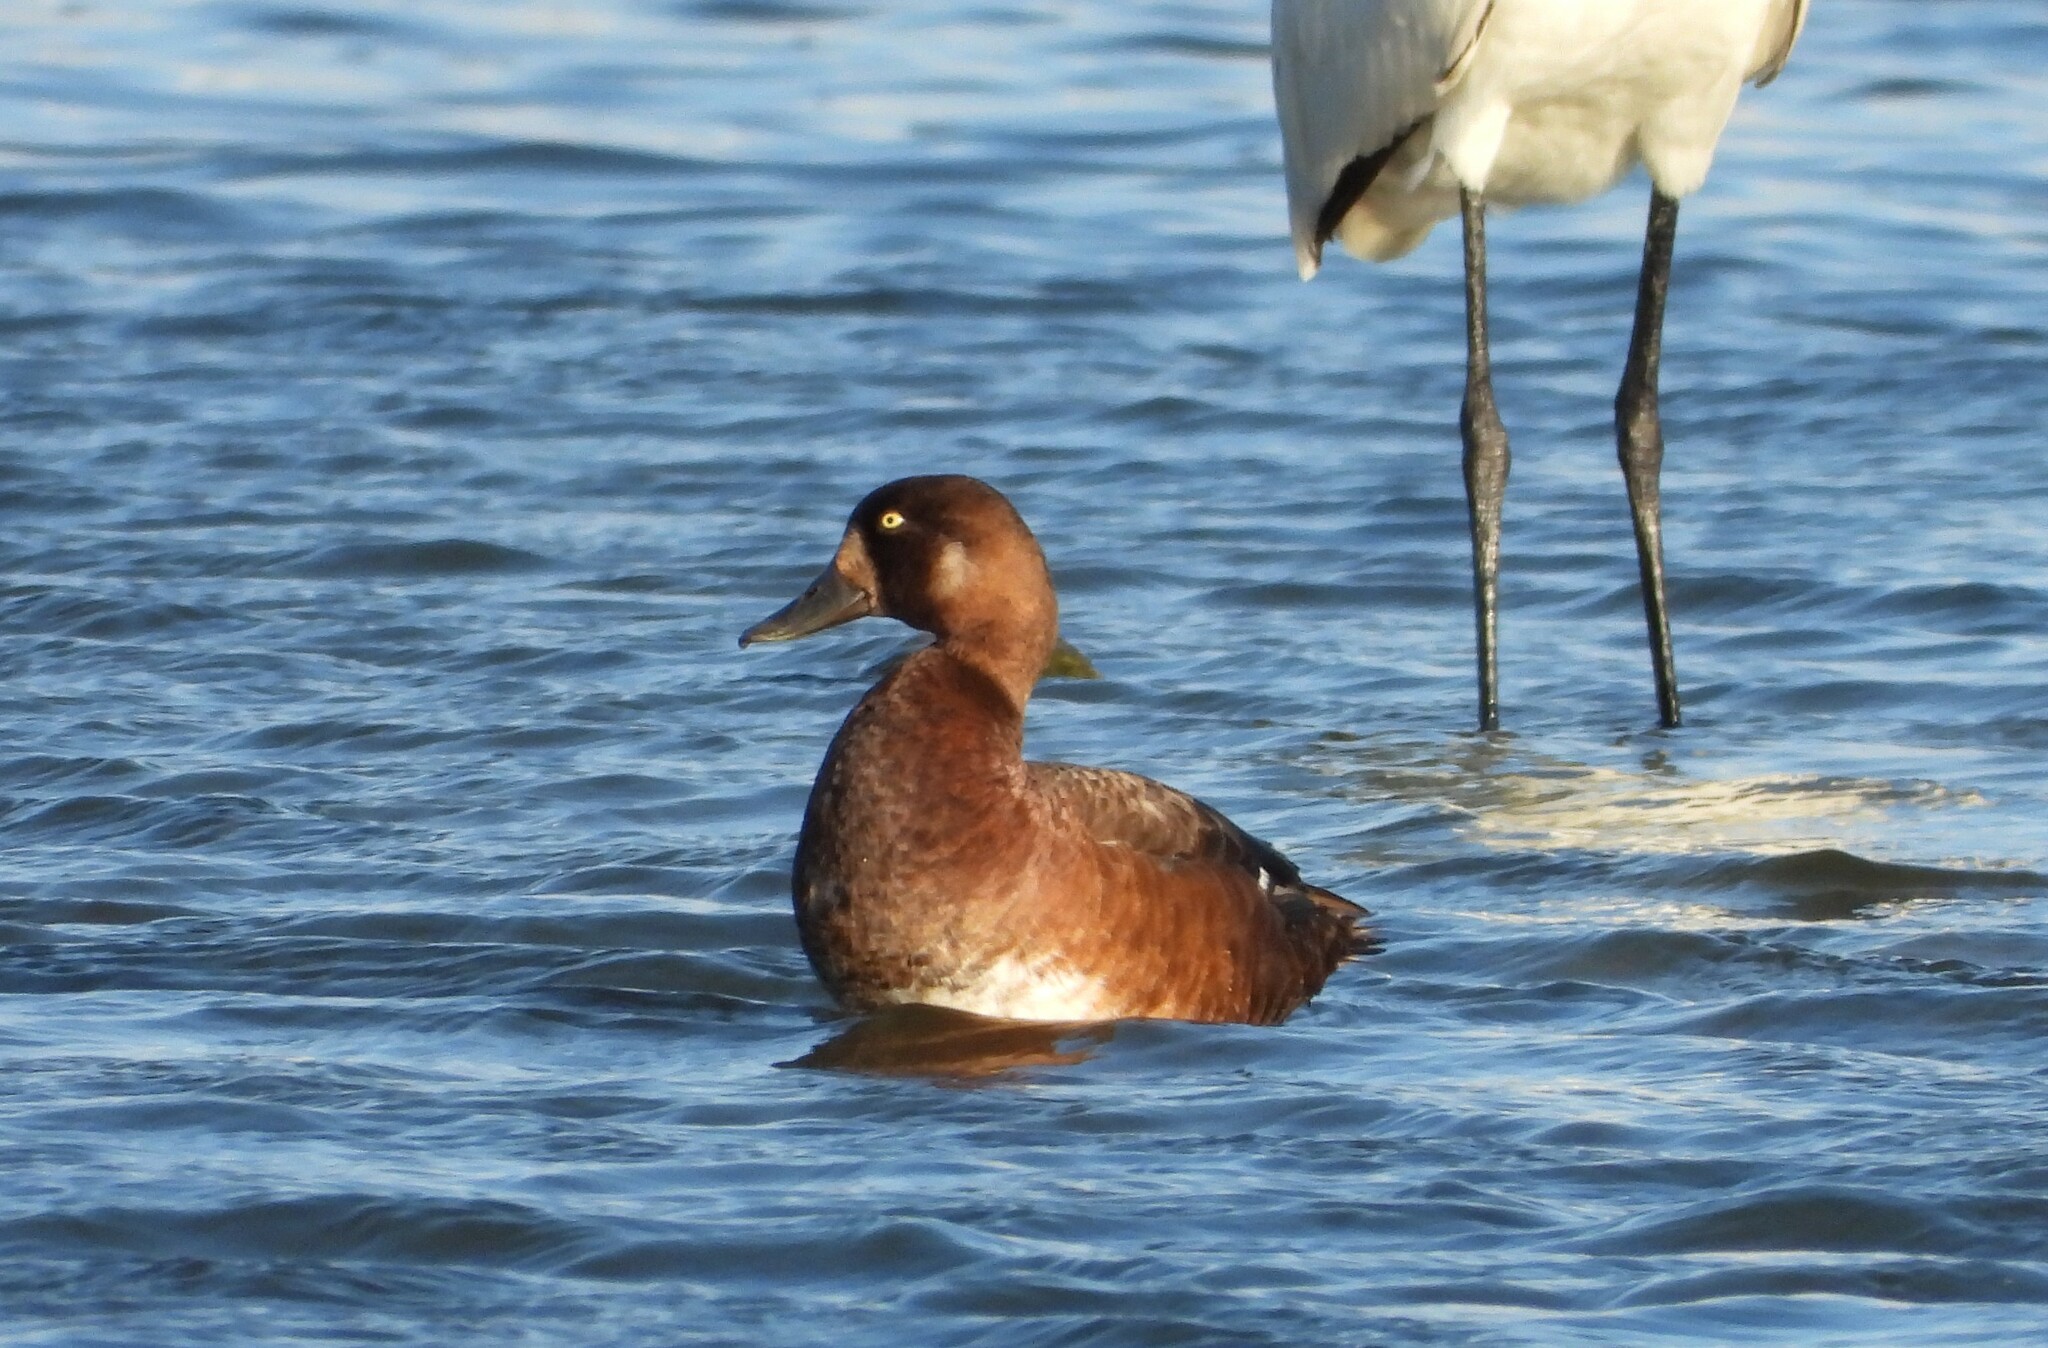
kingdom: Animalia
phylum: Chordata
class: Aves
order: Anseriformes
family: Anatidae
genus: Aythya
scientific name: Aythya marila
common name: Greater scaup
